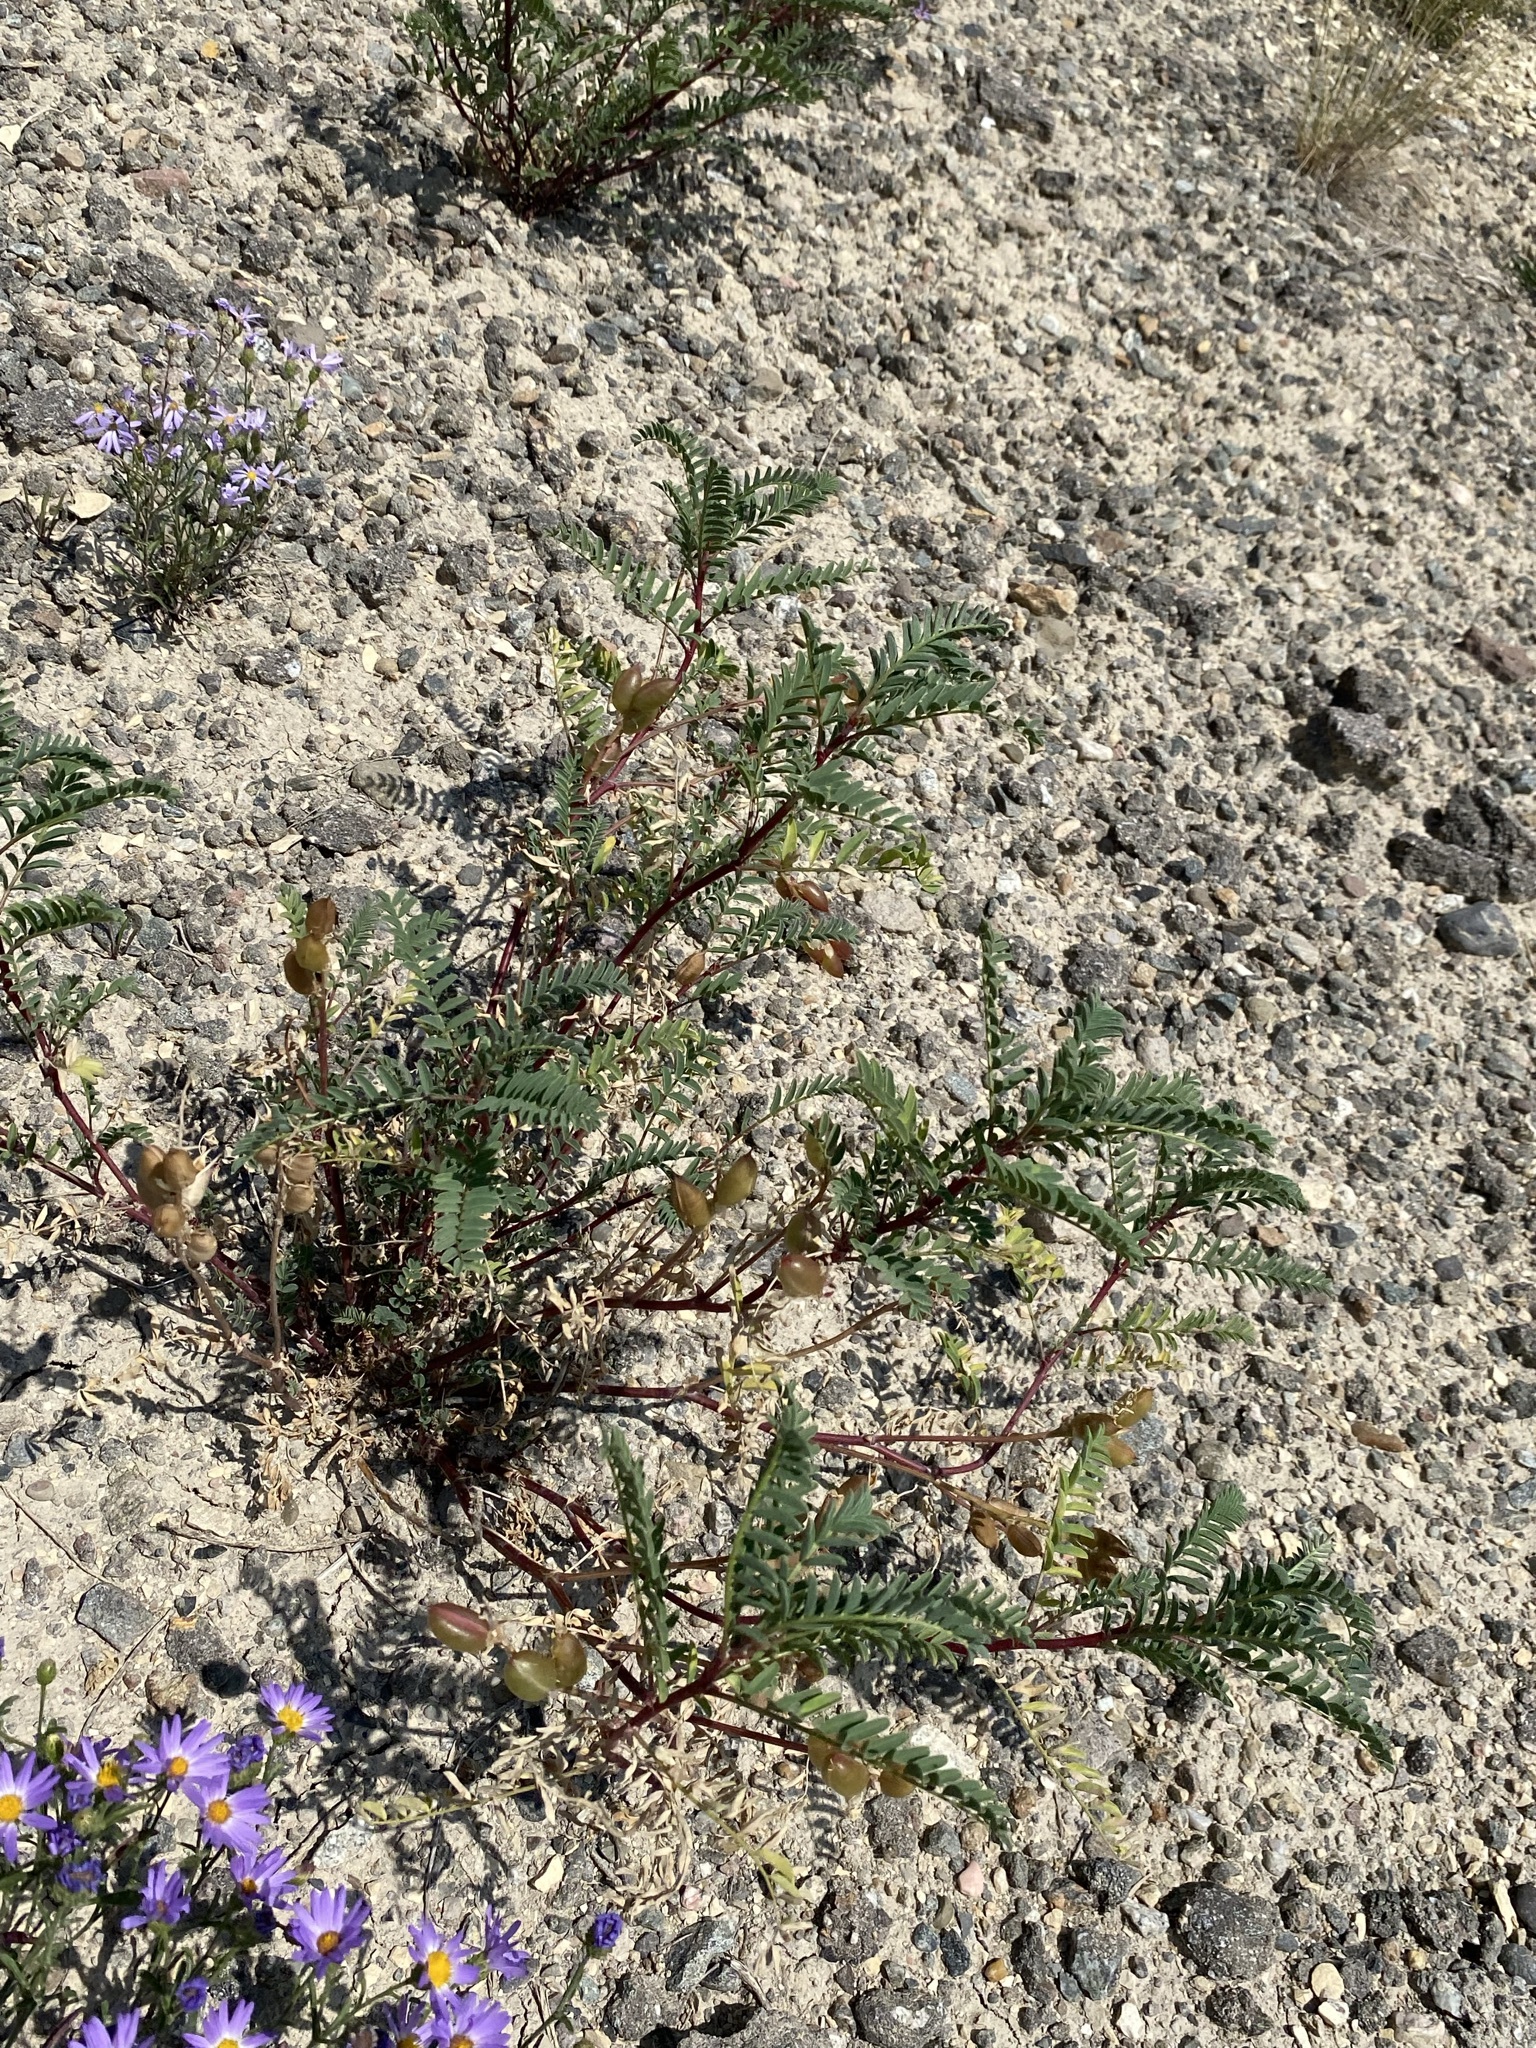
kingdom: Plantae
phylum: Tracheophyta
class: Magnoliopsida
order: Fabales
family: Fabaceae
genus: Astragalus
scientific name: Astragalus pattersonii
